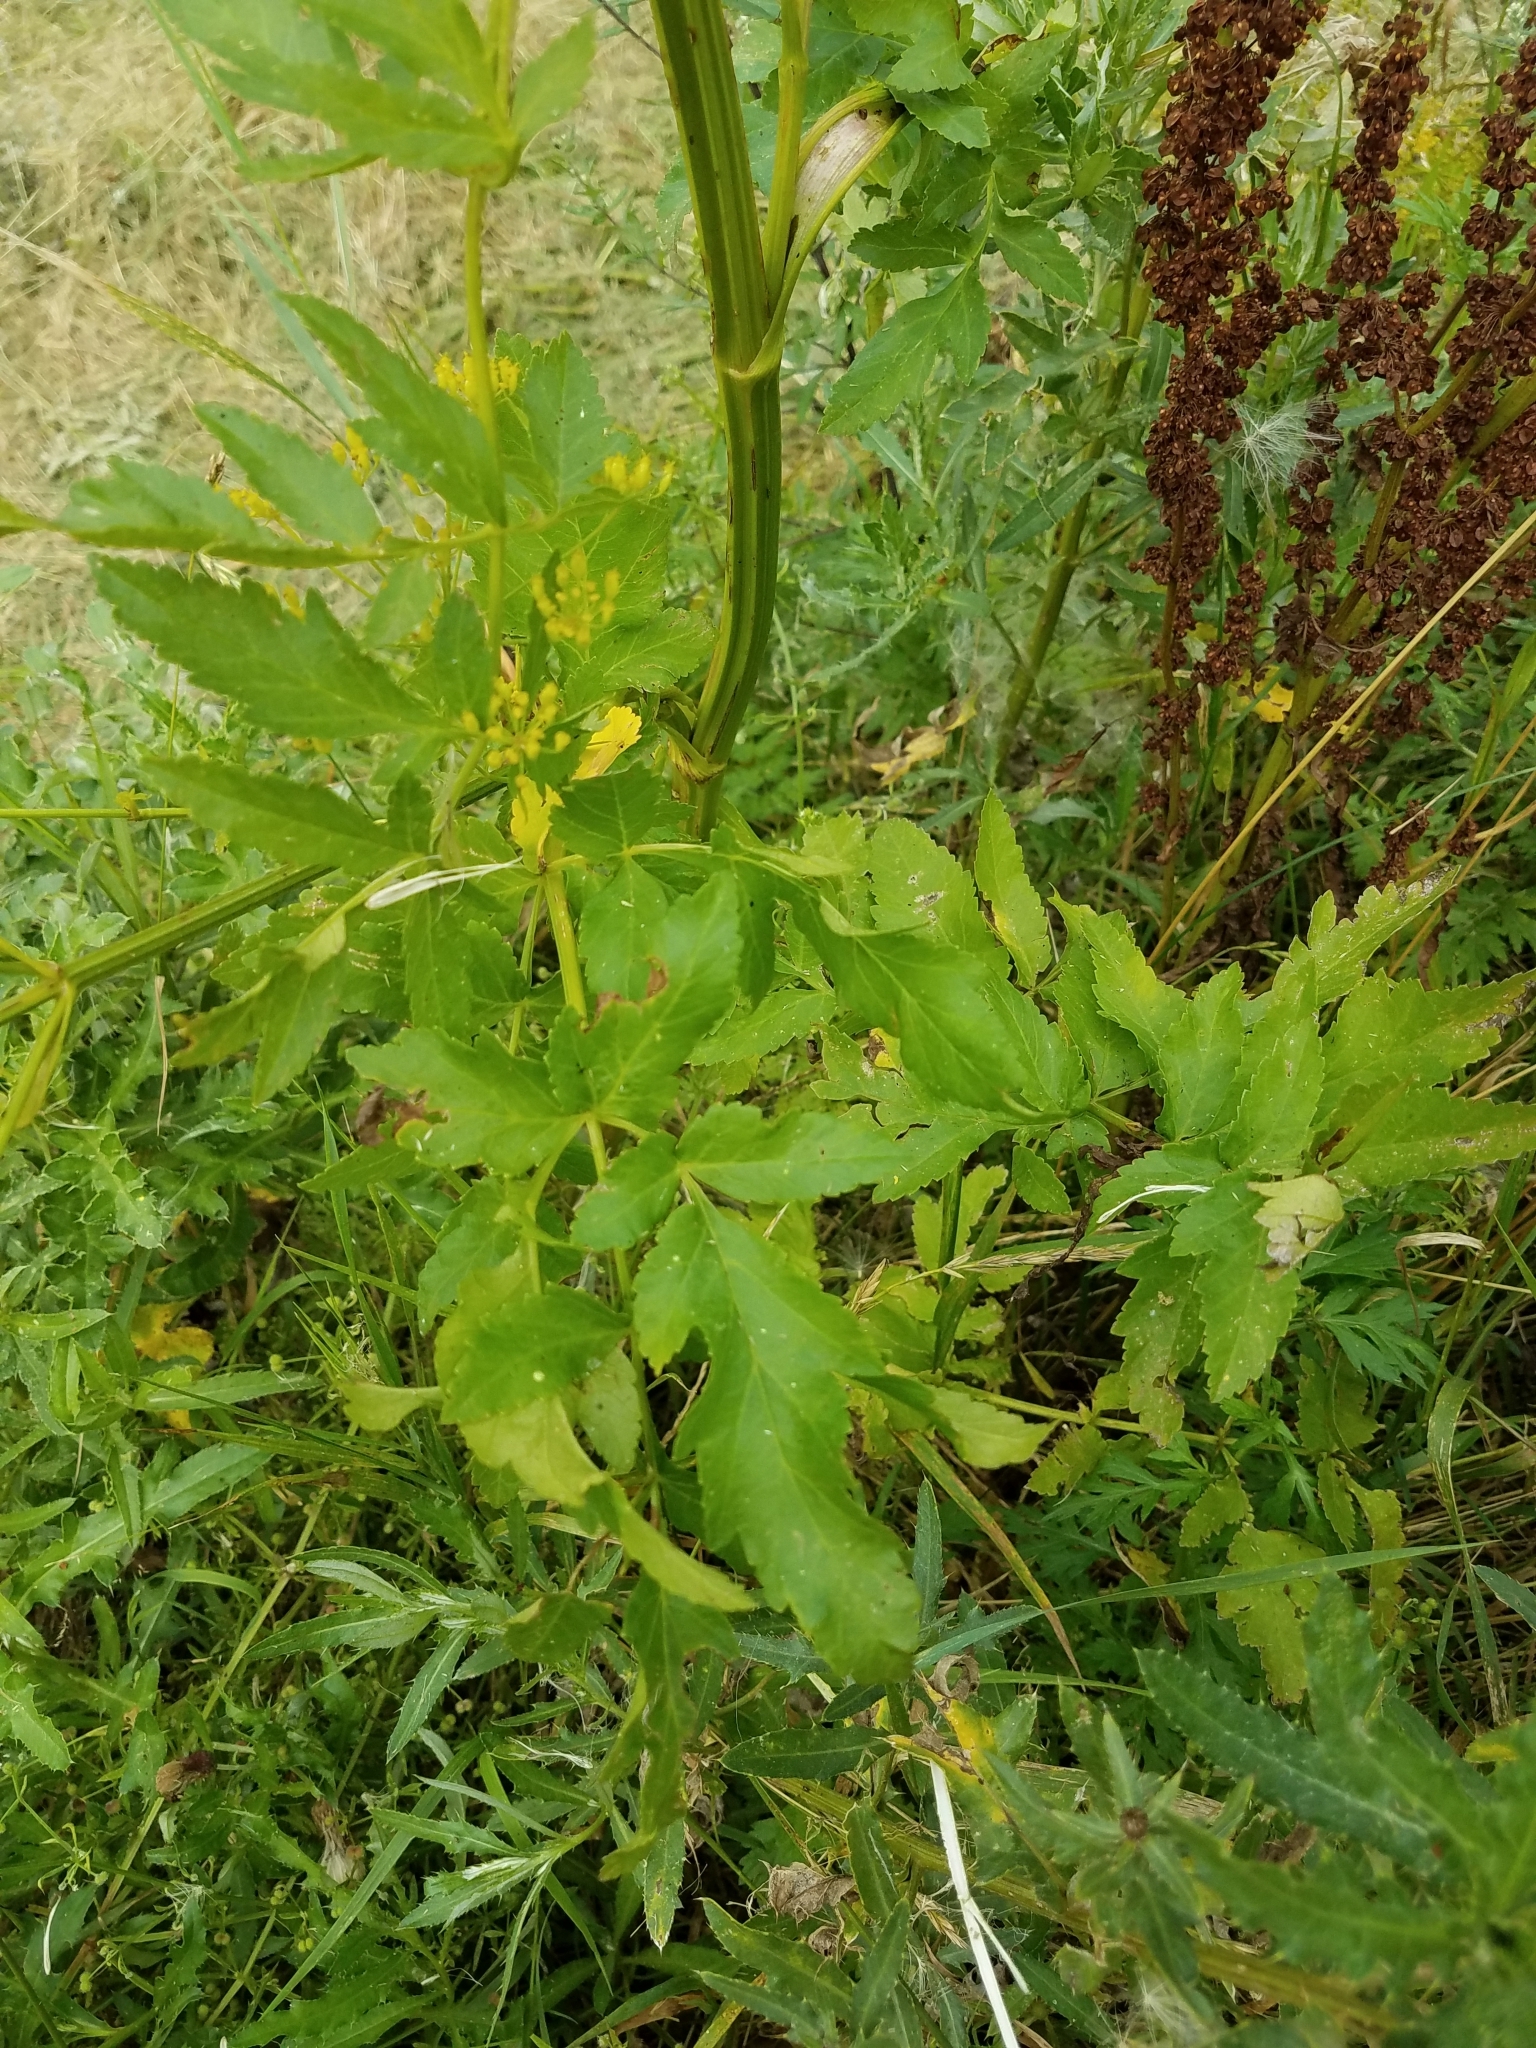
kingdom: Plantae
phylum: Tracheophyta
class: Magnoliopsida
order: Apiales
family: Apiaceae
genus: Pastinaca
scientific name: Pastinaca sativa
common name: Wild parsnip
